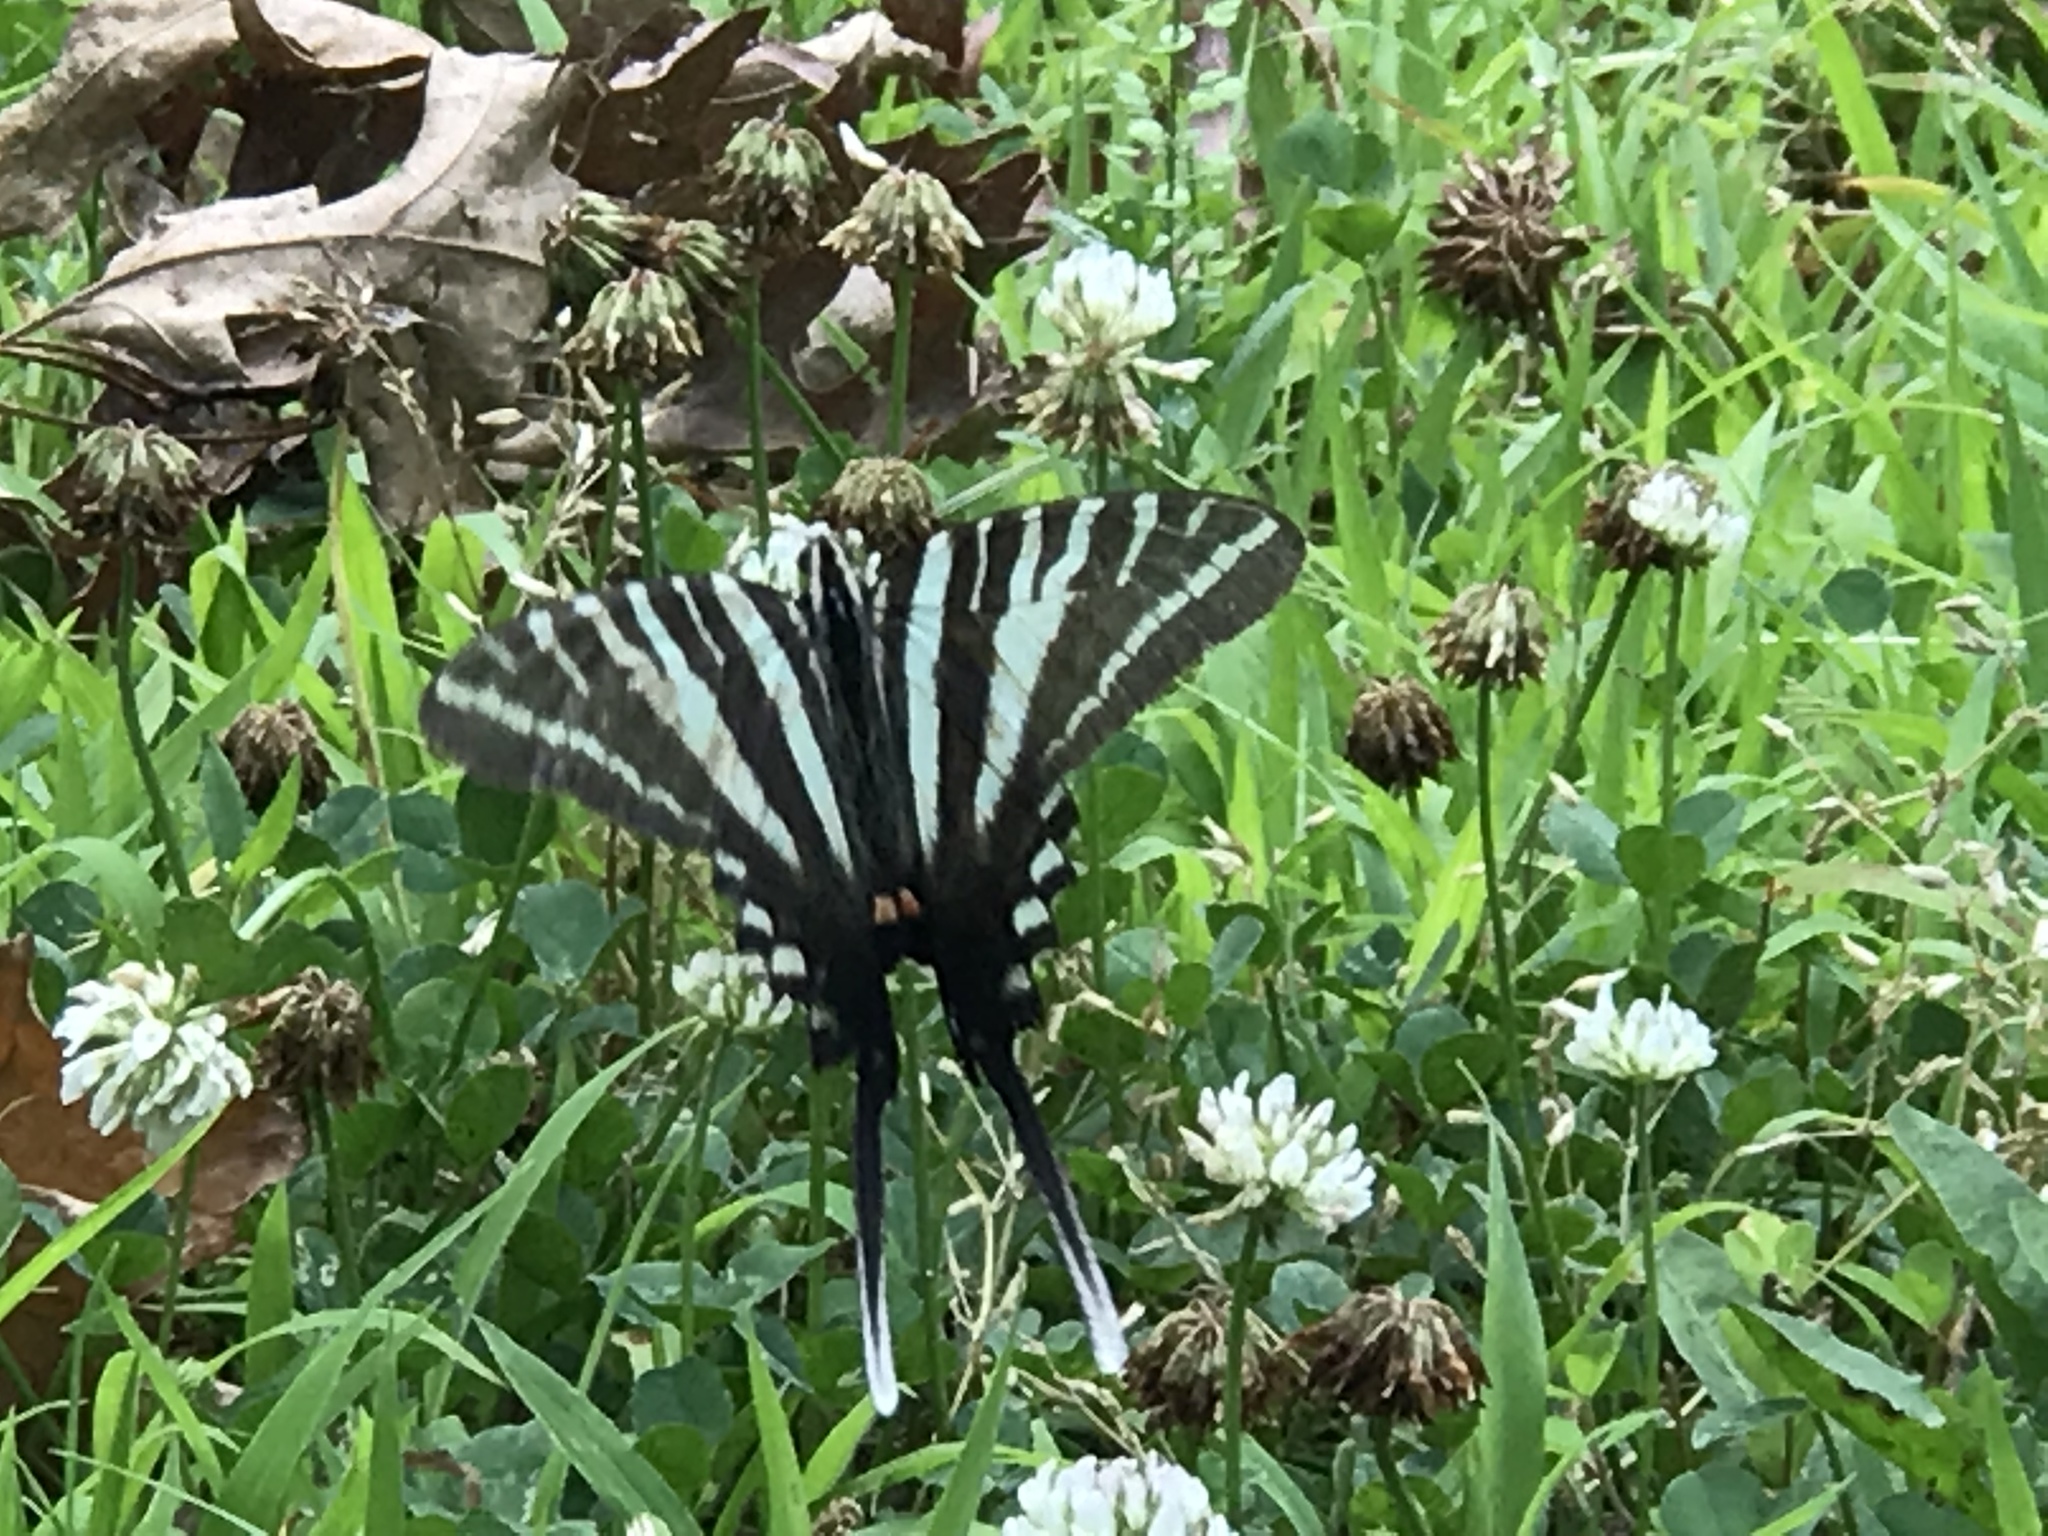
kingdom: Animalia
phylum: Arthropoda
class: Insecta
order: Lepidoptera
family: Papilionidae
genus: Protographium
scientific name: Protographium marcellus
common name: Zebra swallowtail
